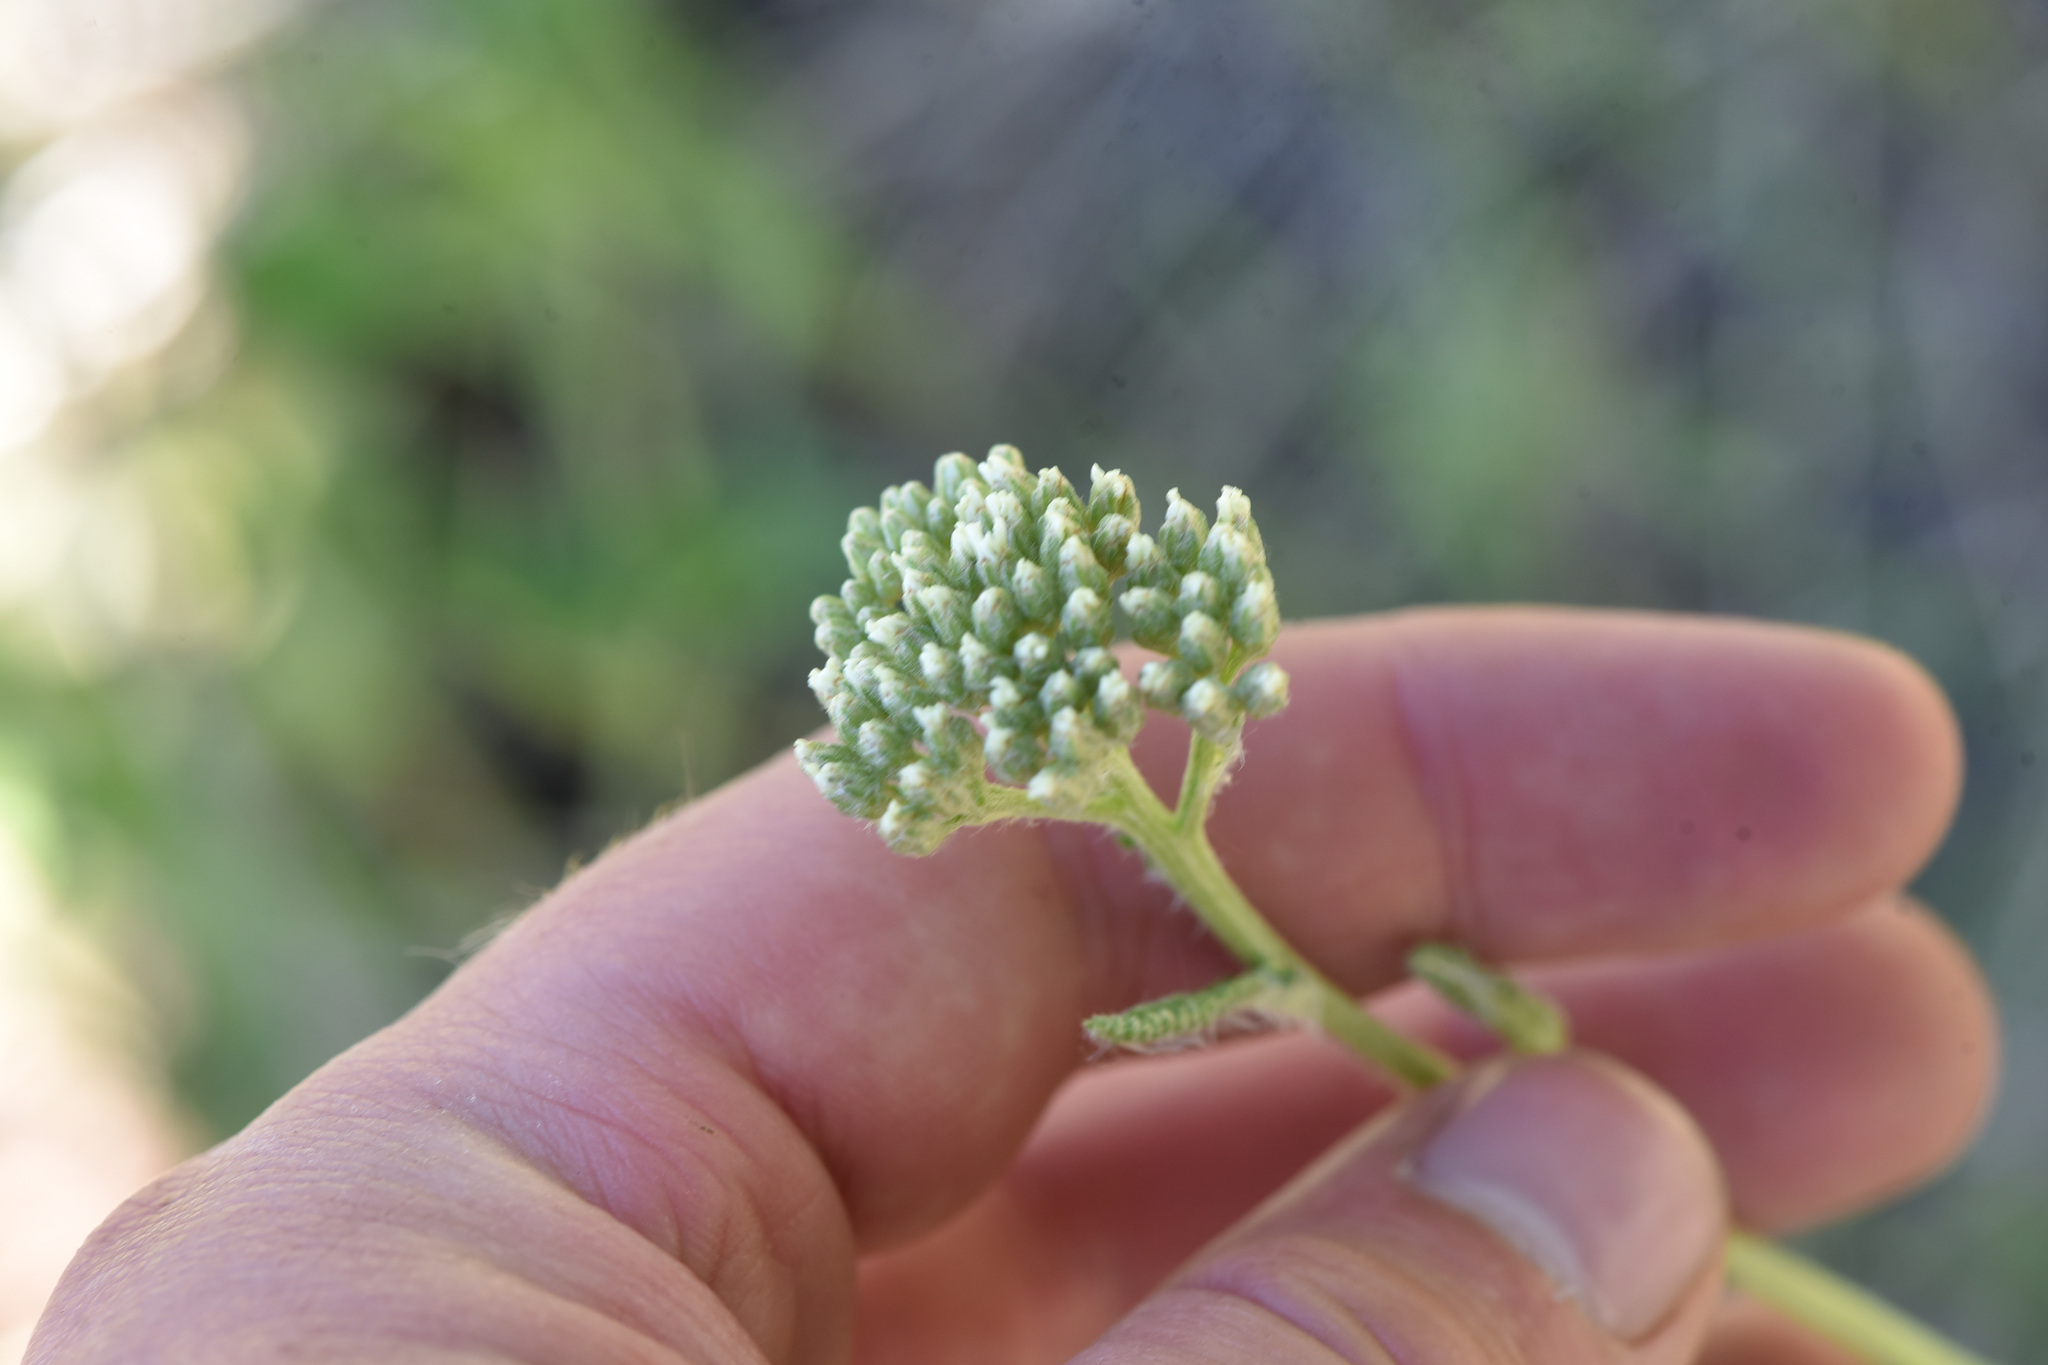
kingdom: Plantae
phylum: Tracheophyta
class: Magnoliopsida
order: Asterales
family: Asteraceae
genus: Achillea
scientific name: Achillea millefolium
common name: Yarrow
